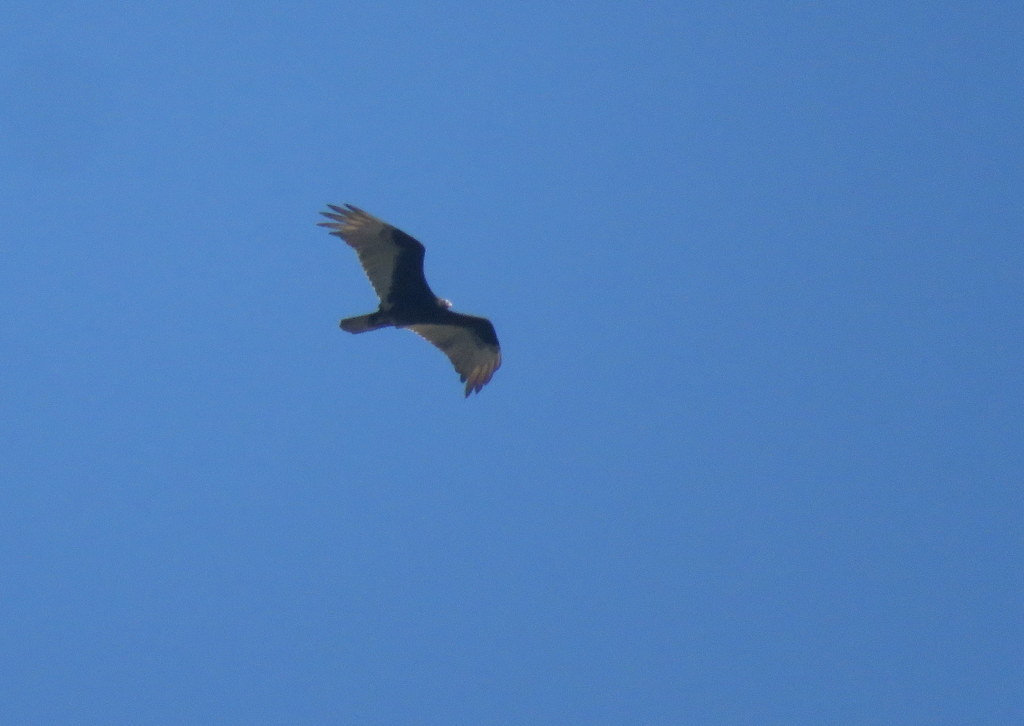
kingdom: Animalia
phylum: Chordata
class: Aves
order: Accipitriformes
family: Cathartidae
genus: Cathartes
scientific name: Cathartes burrovianus
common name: Lesser yellow-headed vulture
